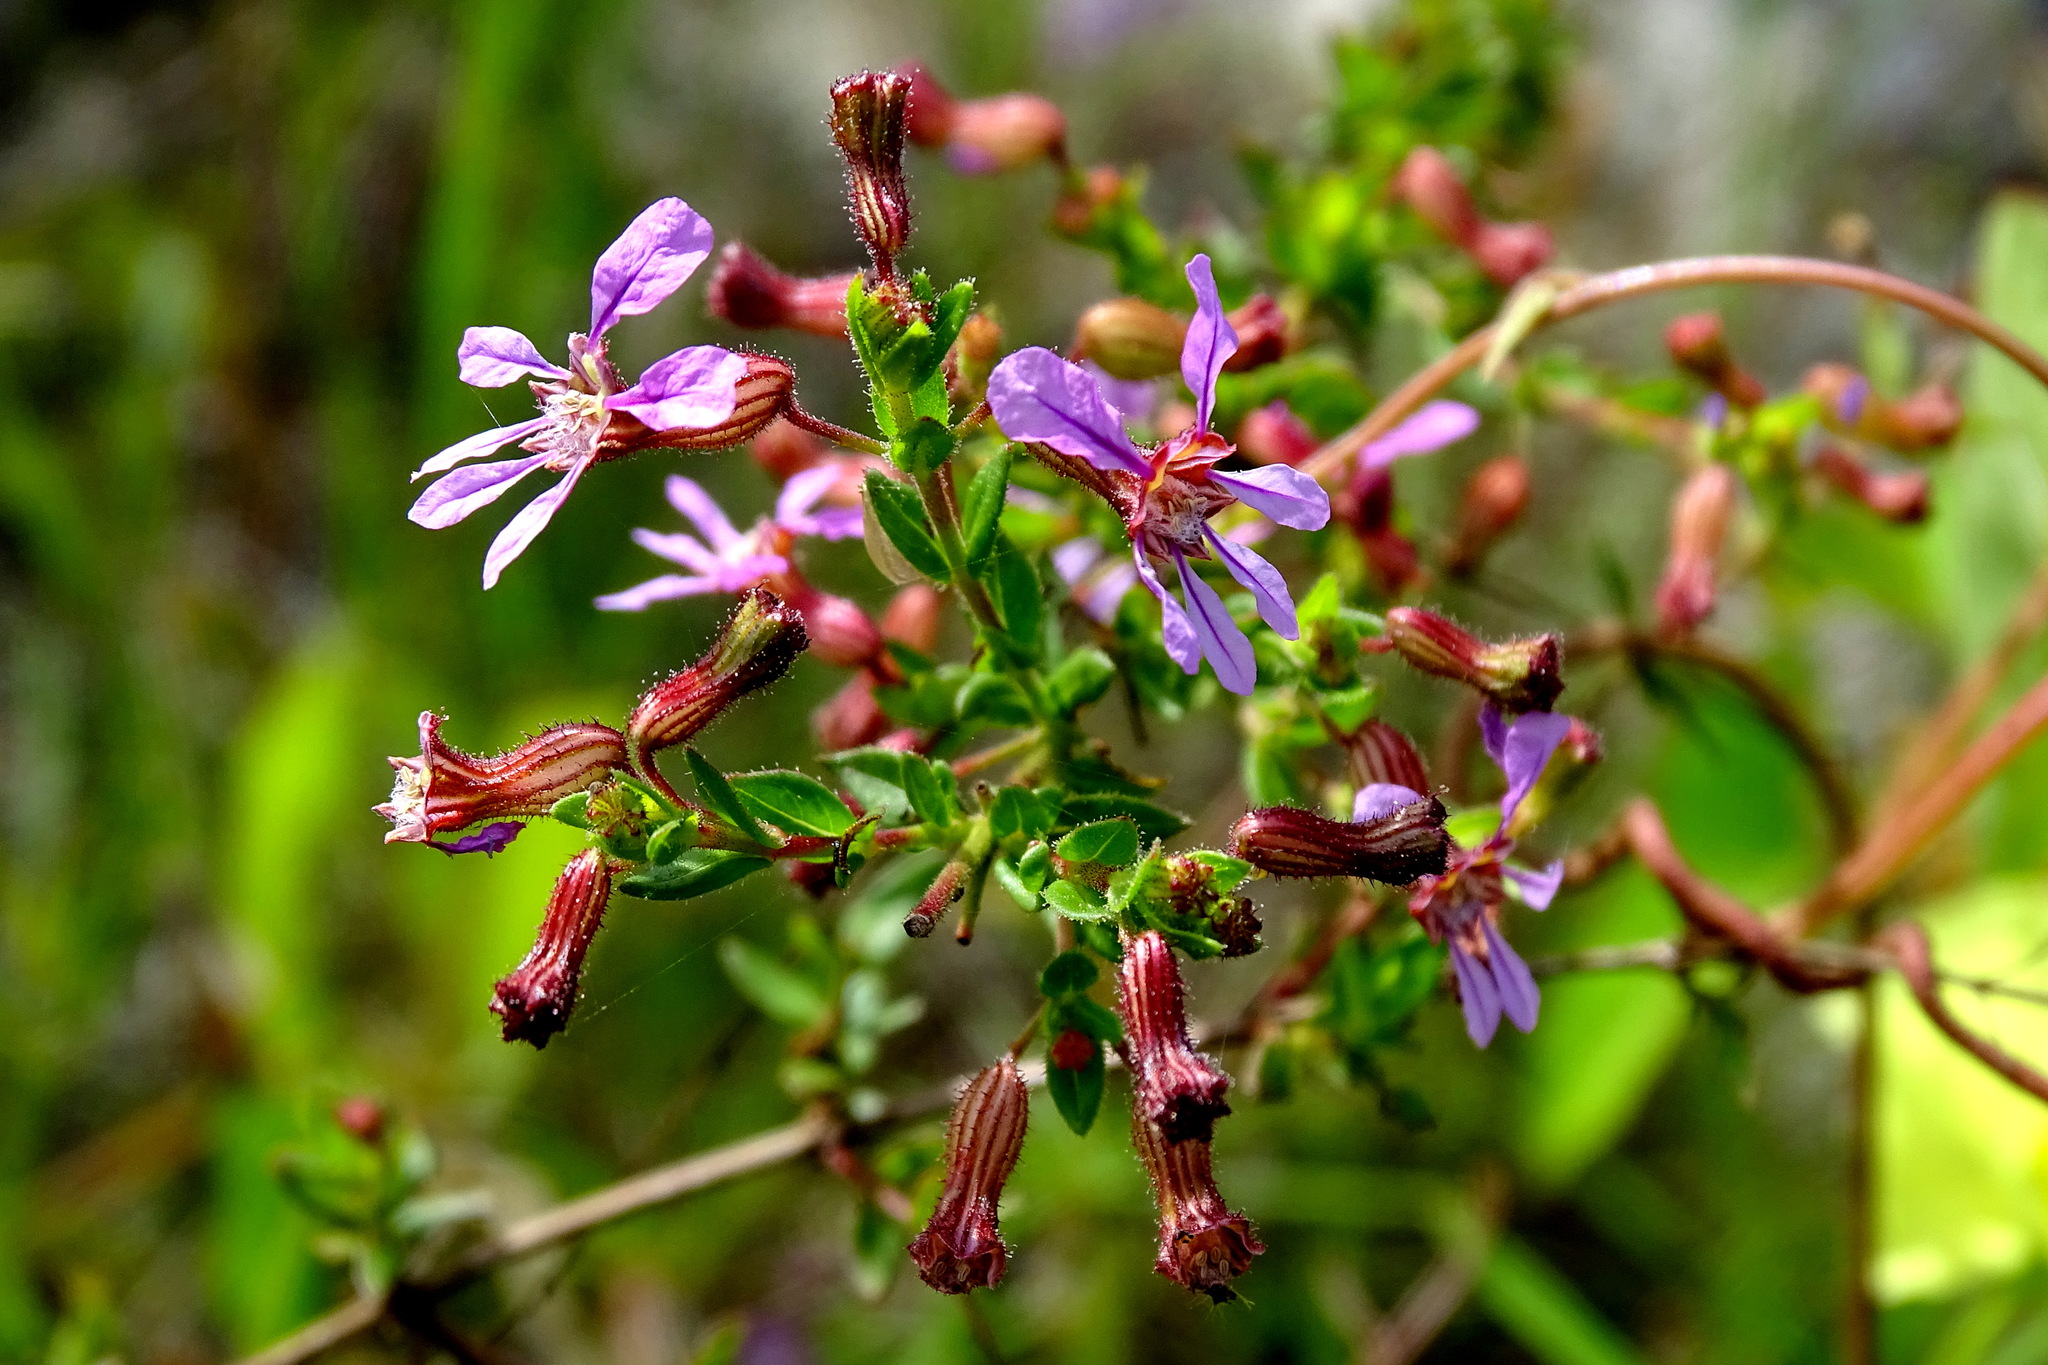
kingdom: Plantae
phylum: Tracheophyta
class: Magnoliopsida
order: Myrtales
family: Lythraceae
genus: Cuphea
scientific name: Cuphea gaumeri
